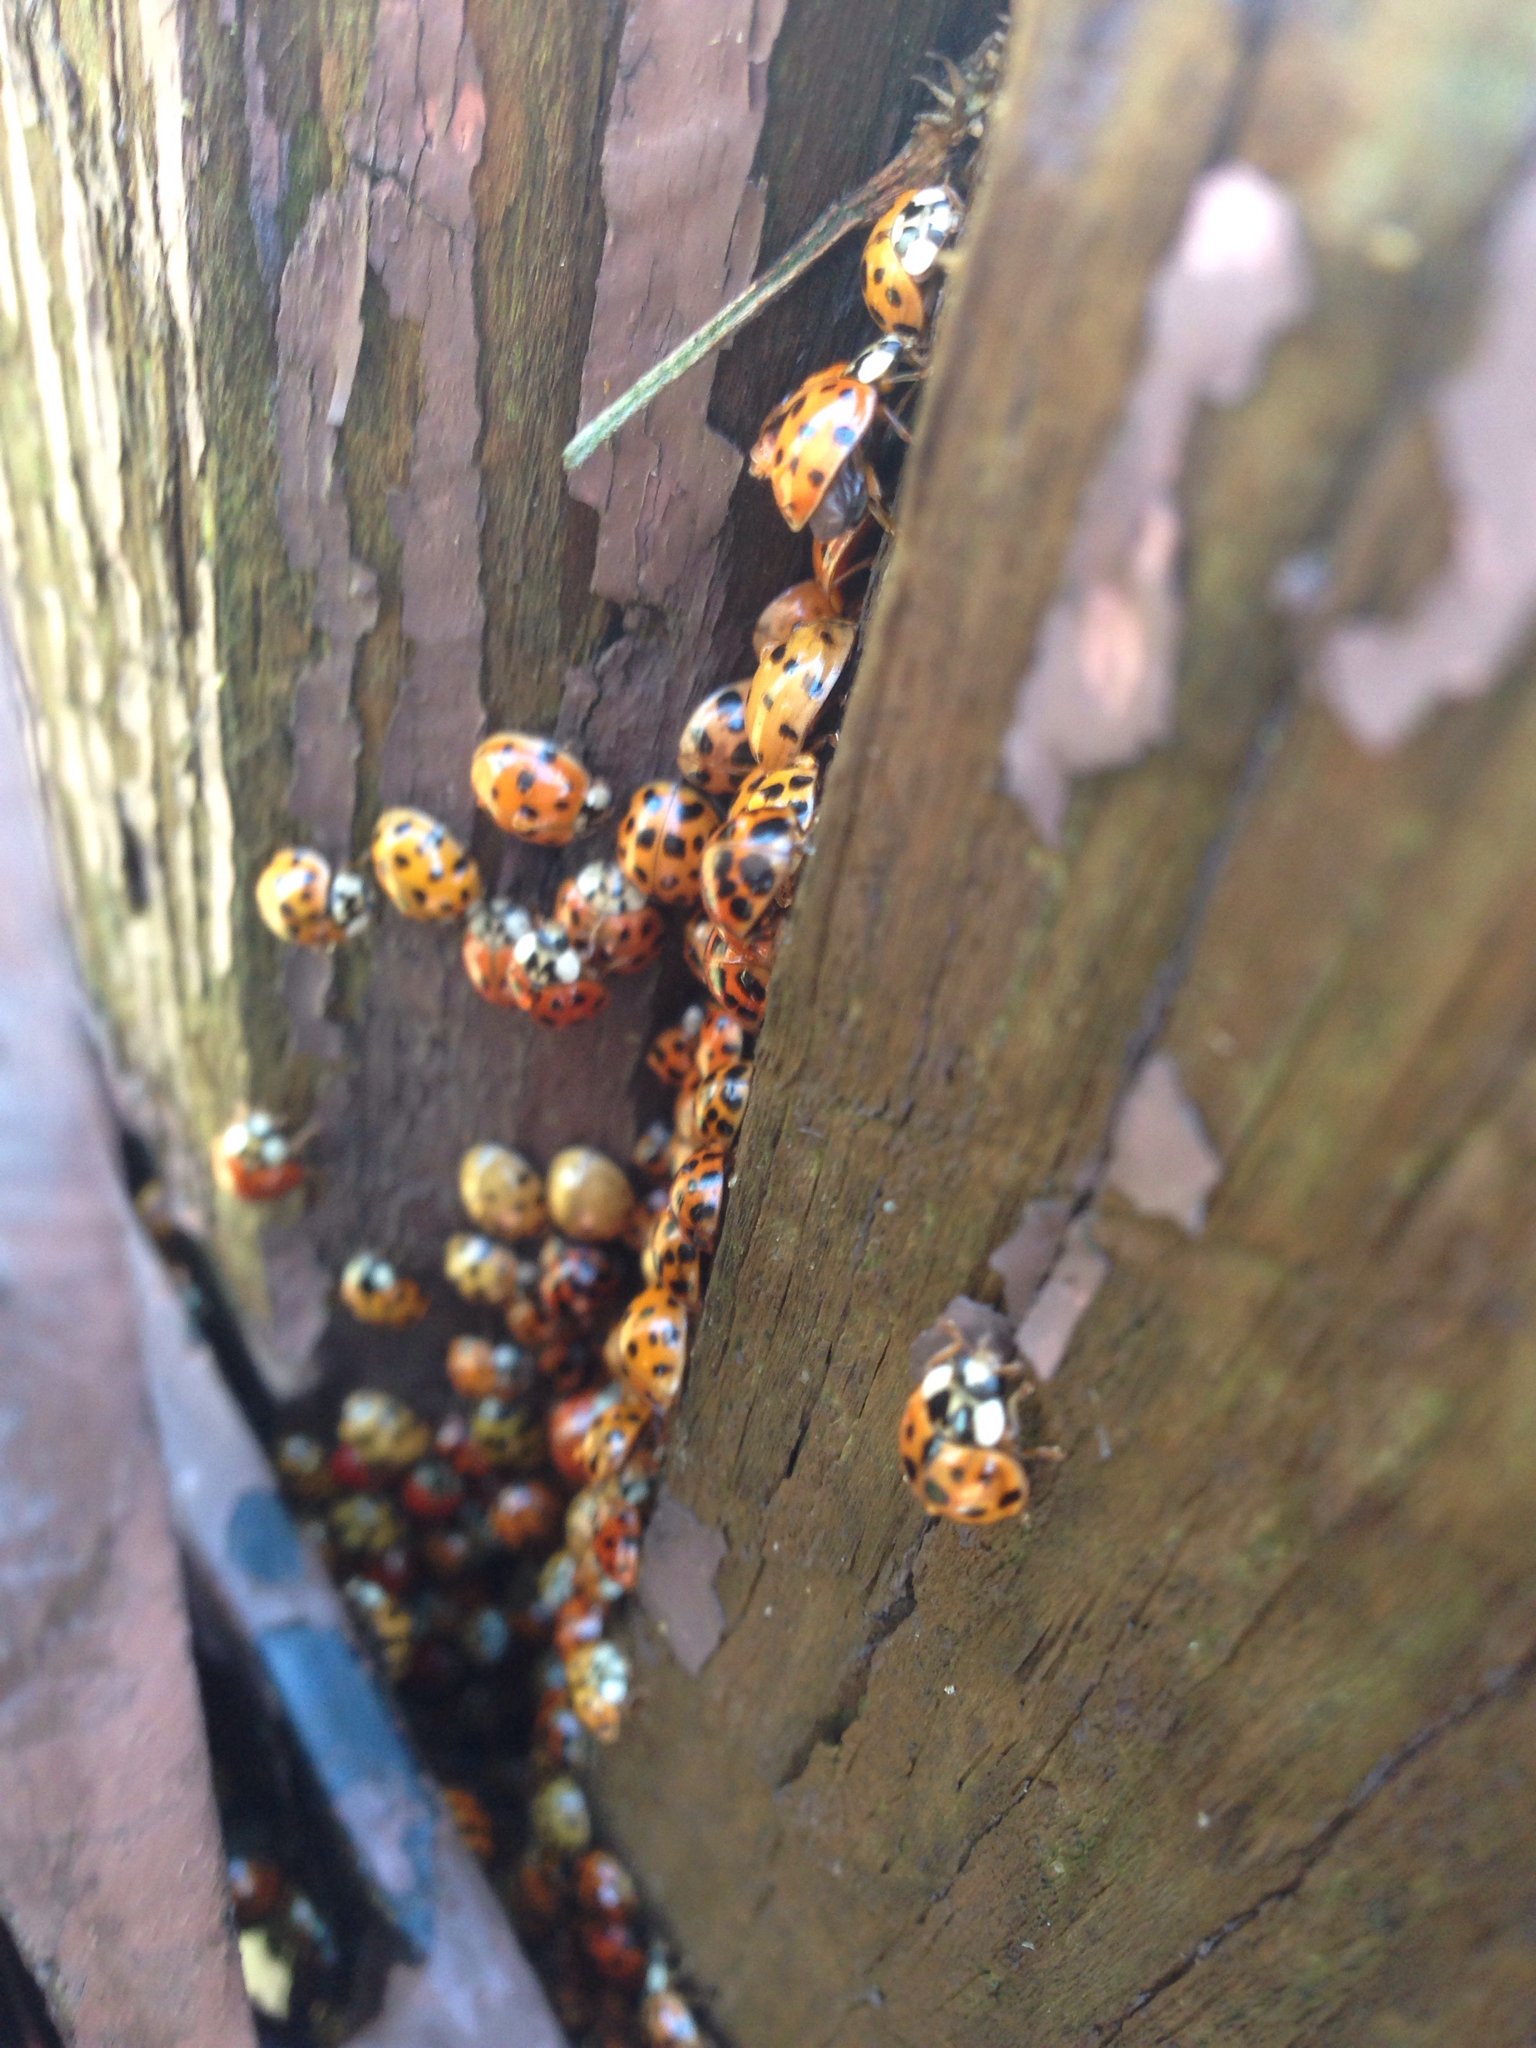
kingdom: Animalia
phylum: Arthropoda
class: Insecta
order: Coleoptera
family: Coccinellidae
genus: Harmonia
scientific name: Harmonia axyridis
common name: Harlequin ladybird
